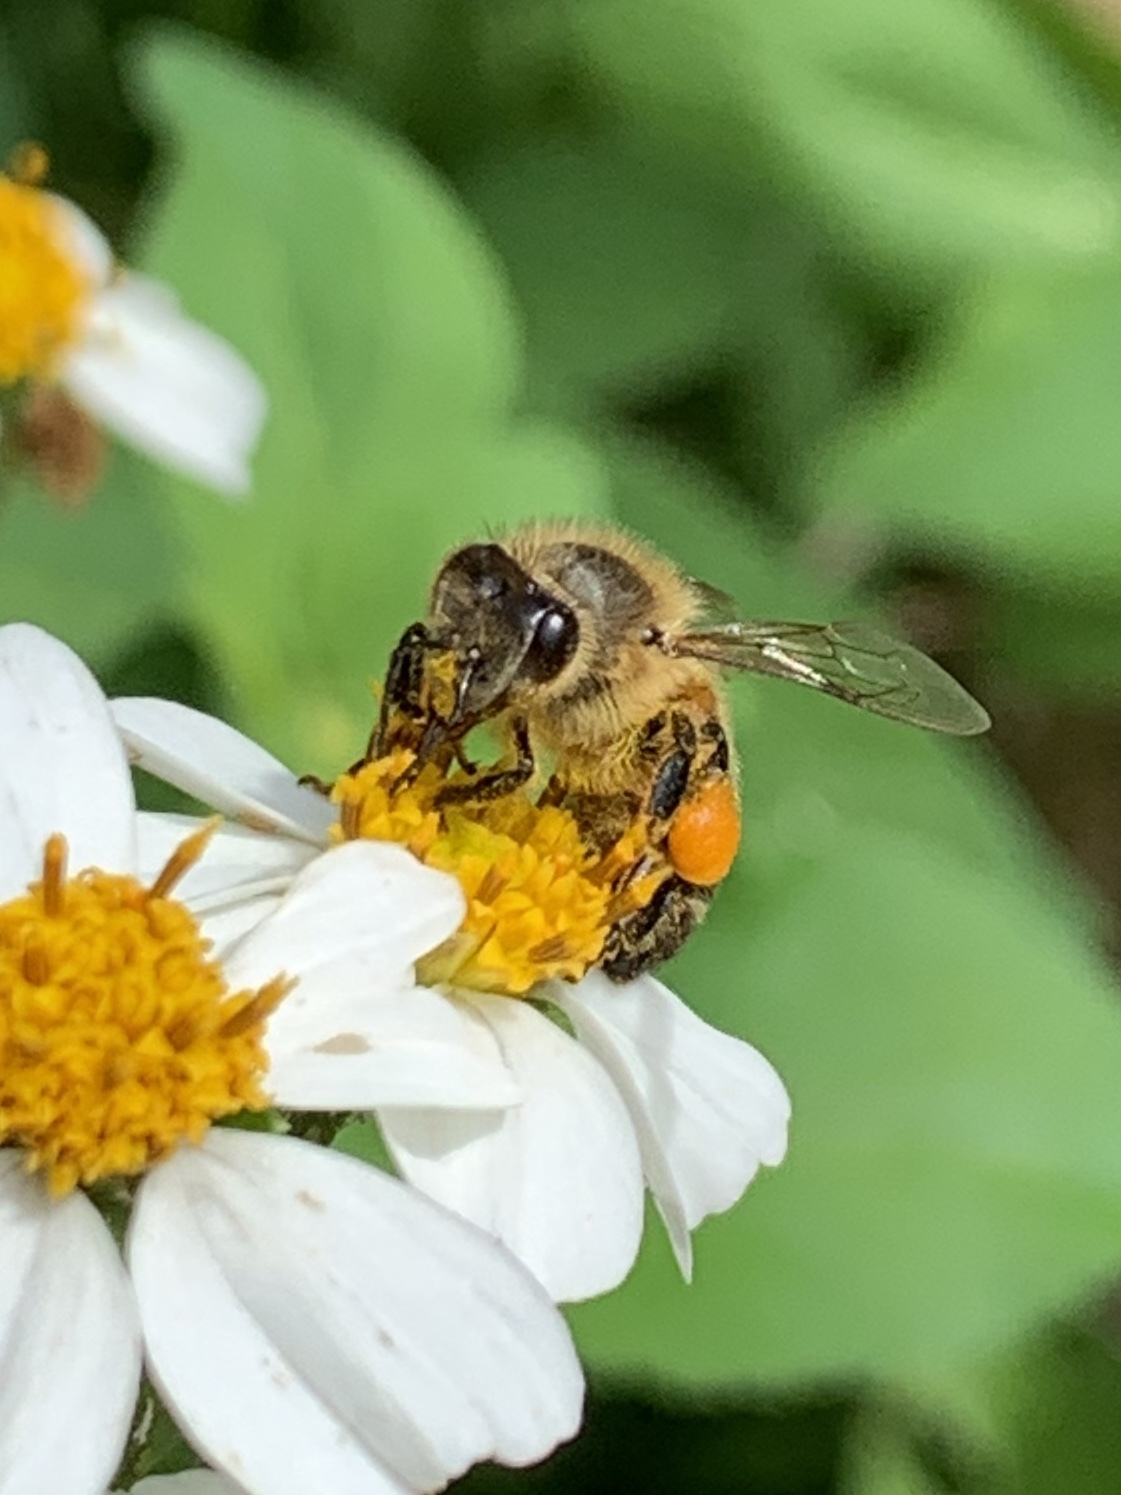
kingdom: Animalia
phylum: Arthropoda
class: Insecta
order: Hymenoptera
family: Apidae
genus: Apis
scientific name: Apis mellifera
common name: Honey bee
